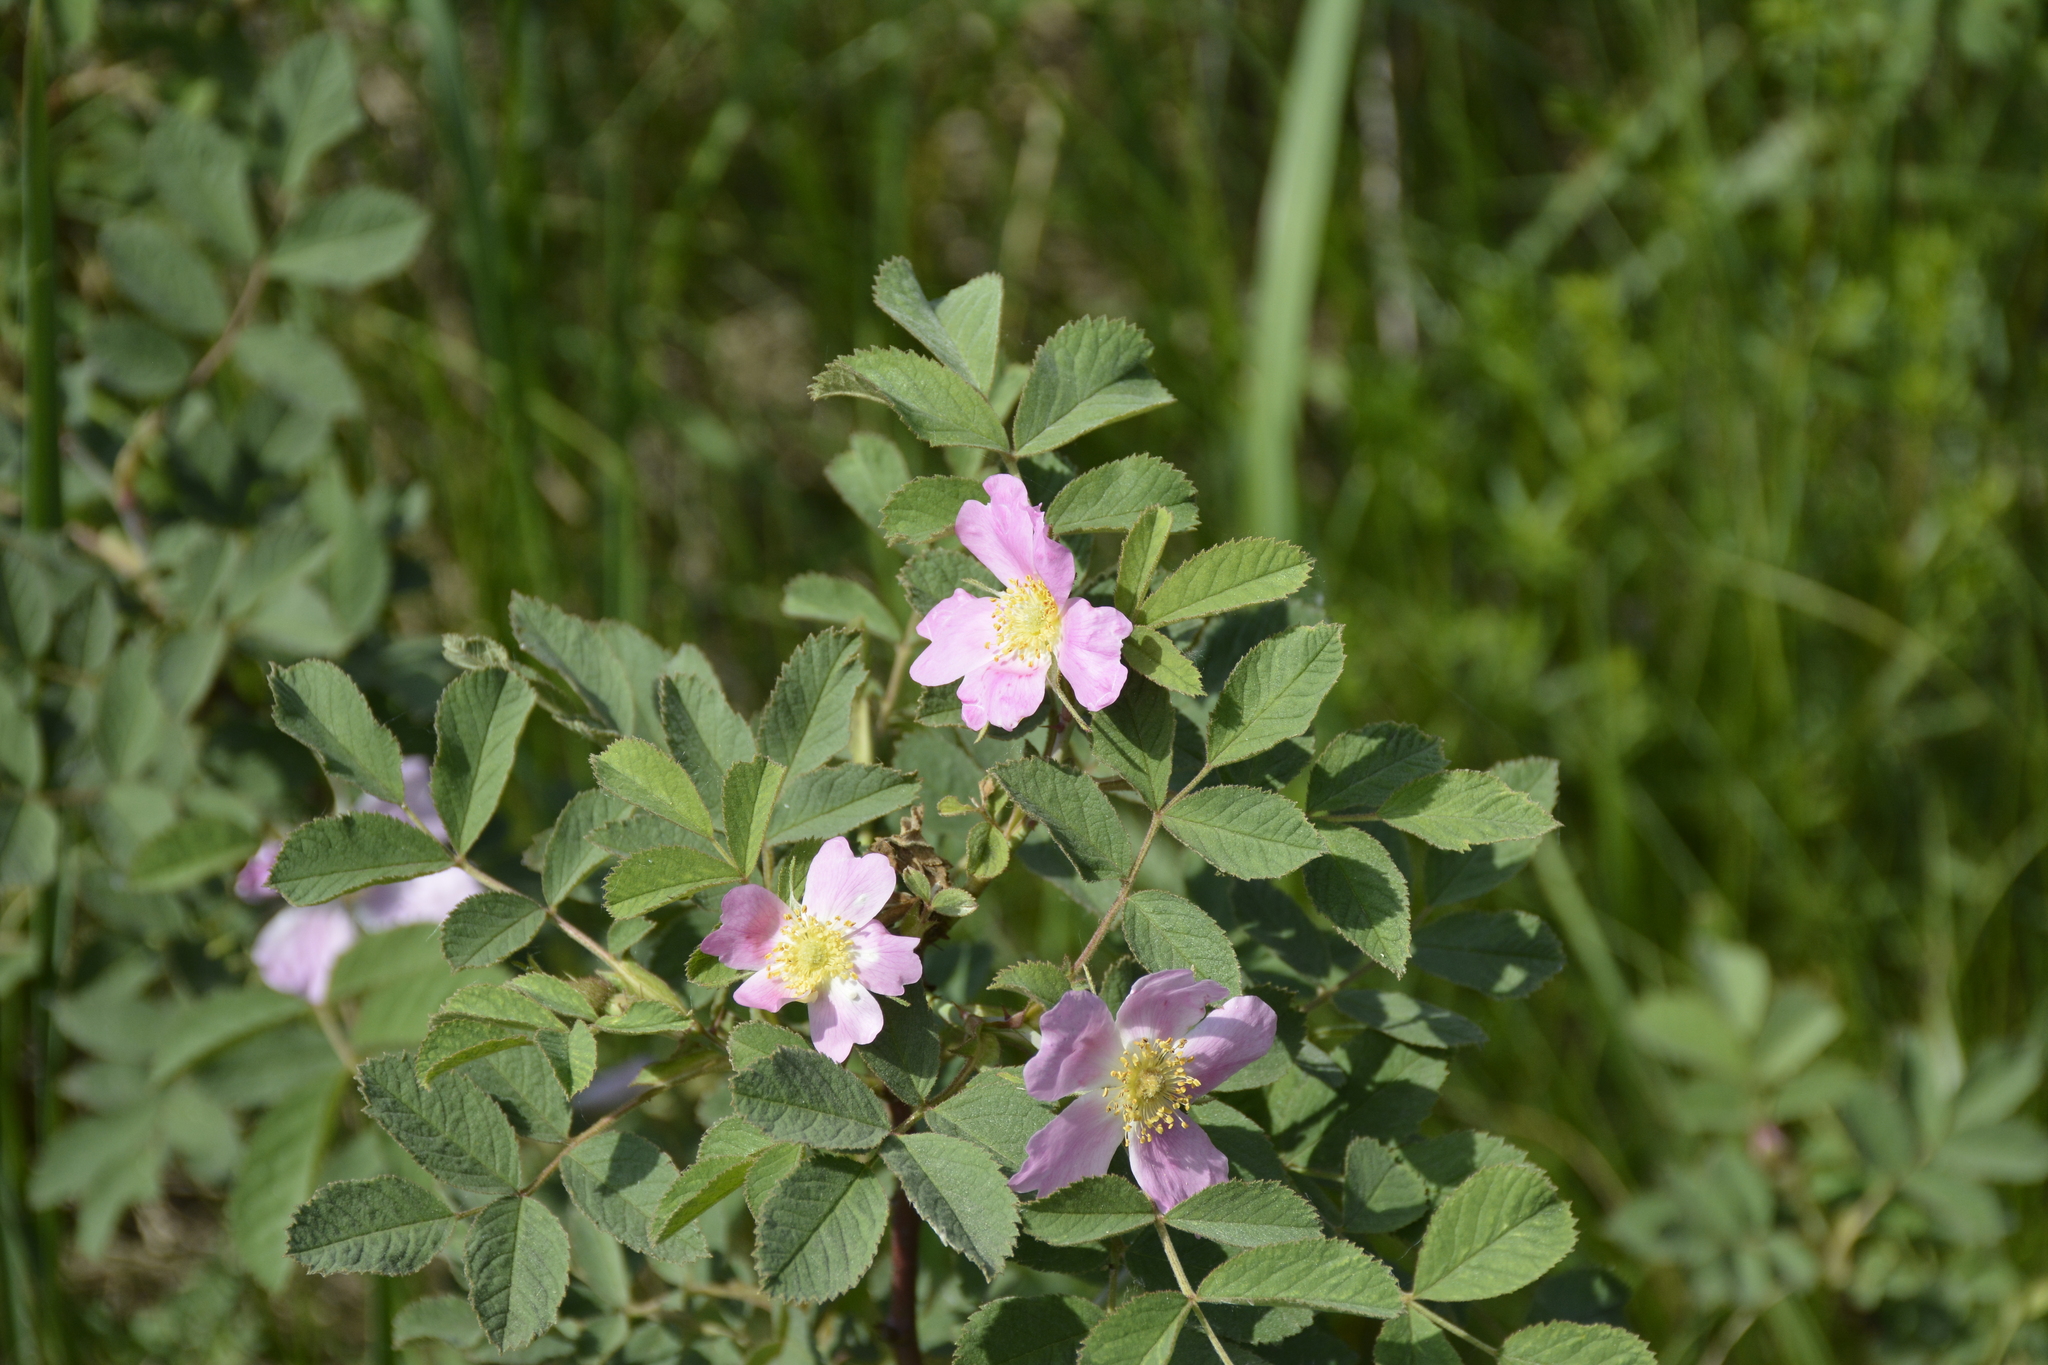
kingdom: Plantae
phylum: Tracheophyta
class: Magnoliopsida
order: Rosales
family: Rosaceae
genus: Rosa
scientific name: Rosa majalis
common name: Cinnamon rose
